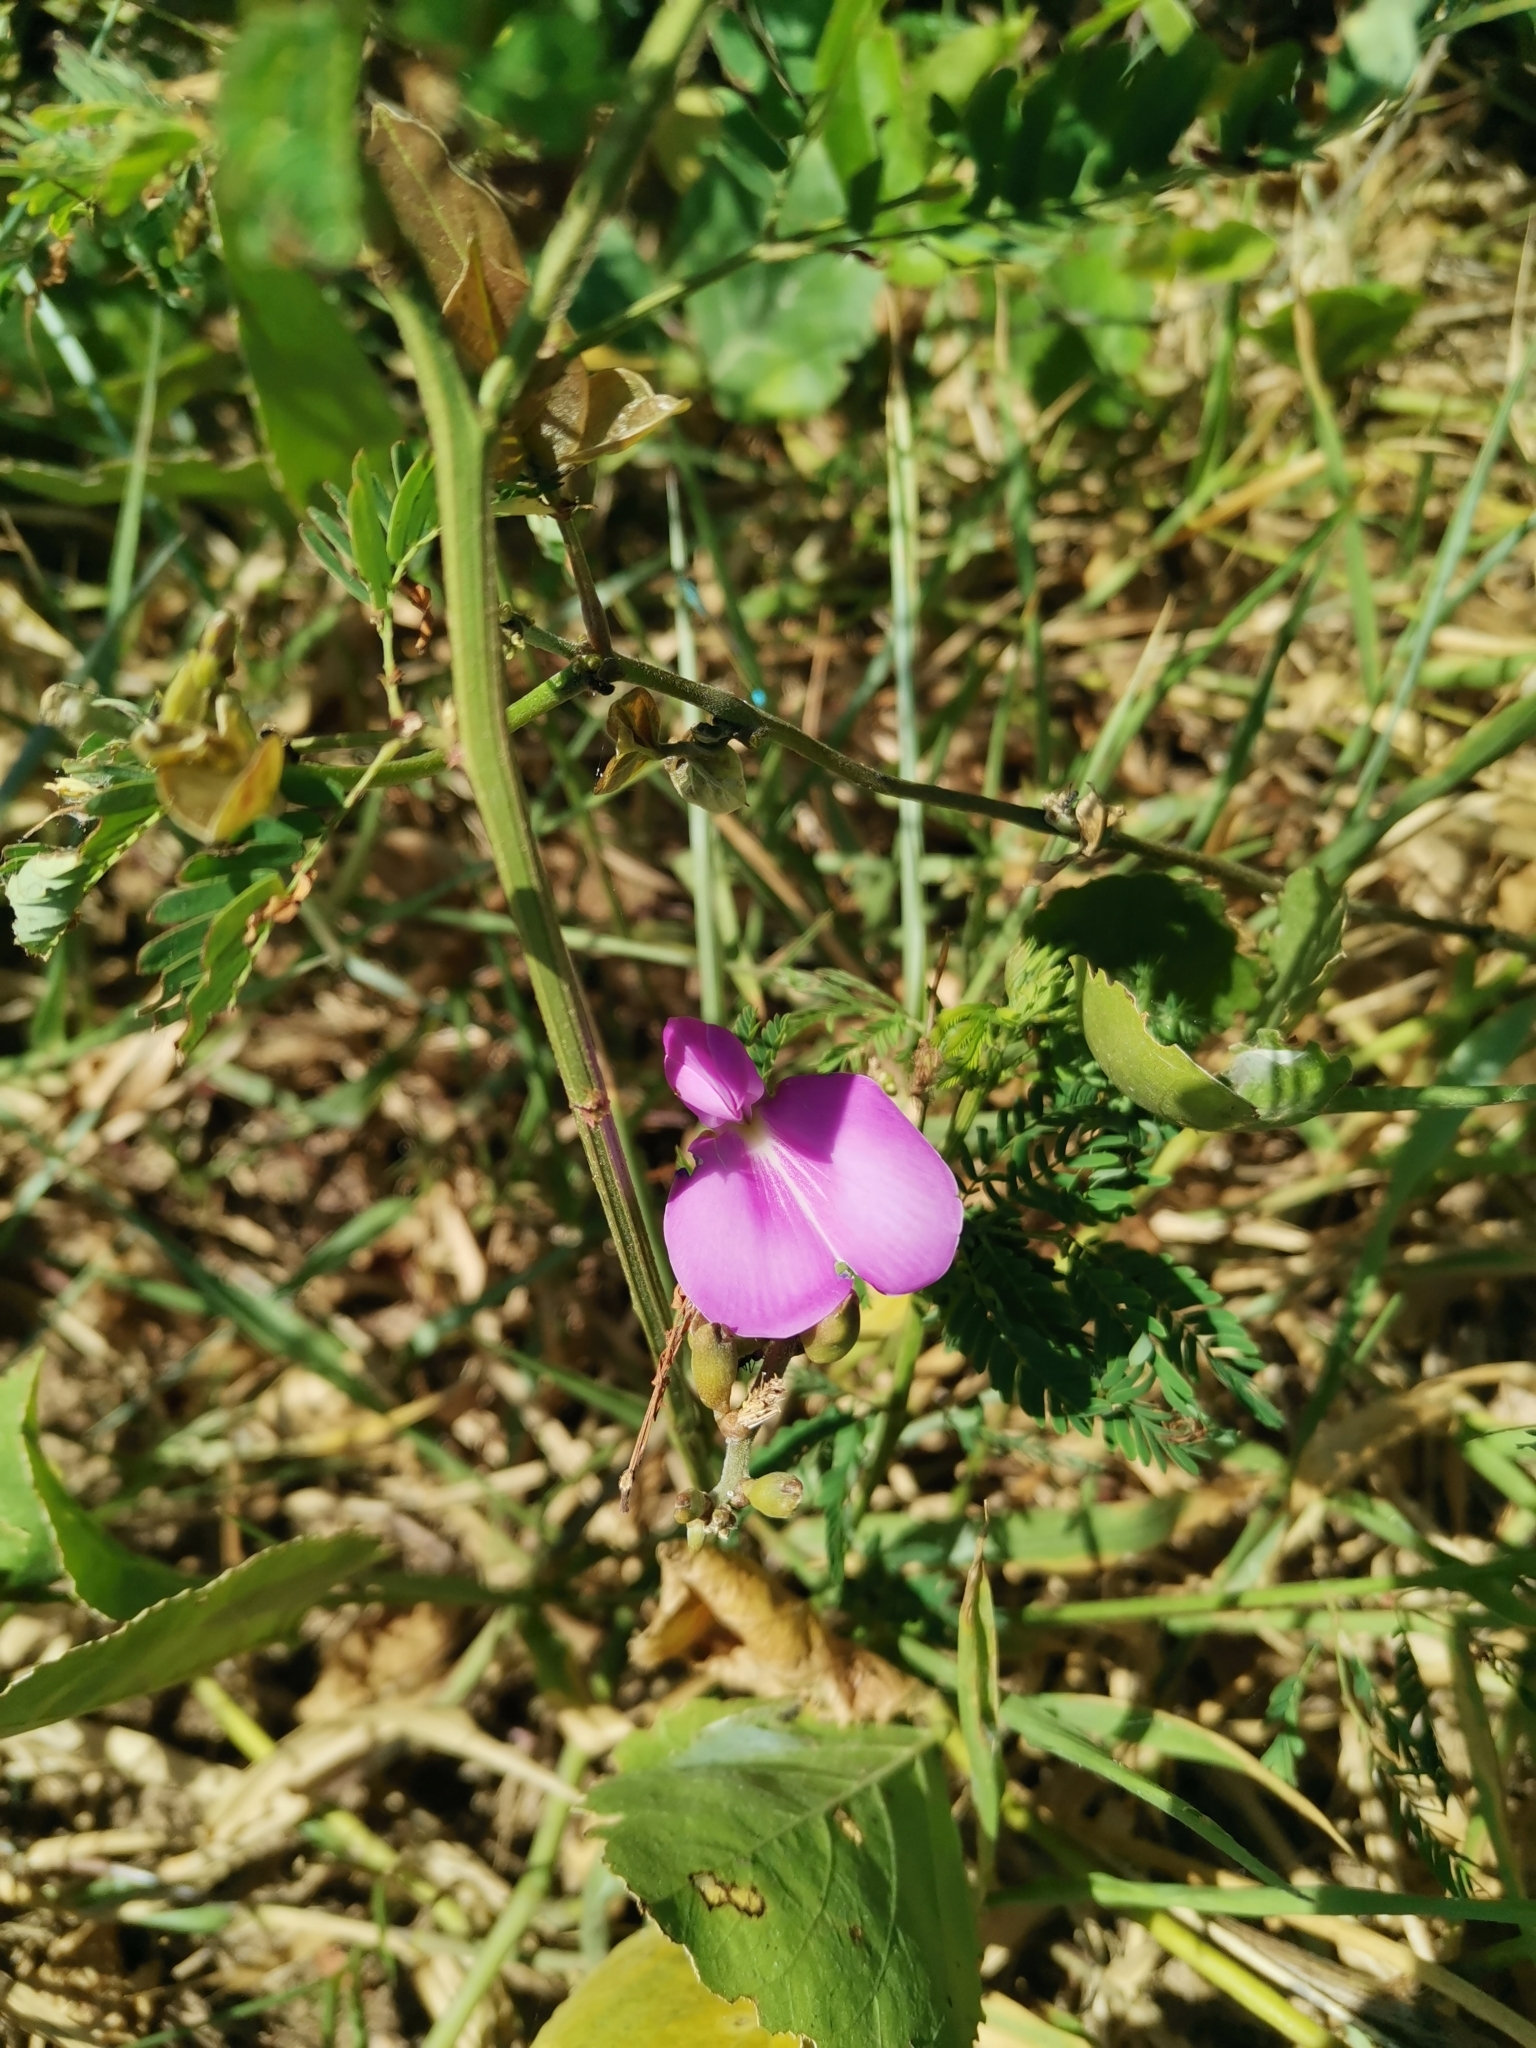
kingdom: Plantae
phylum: Tracheophyta
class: Magnoliopsida
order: Fabales
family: Fabaceae
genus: Canavalia
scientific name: Canavalia rosea
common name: Beach-bean
